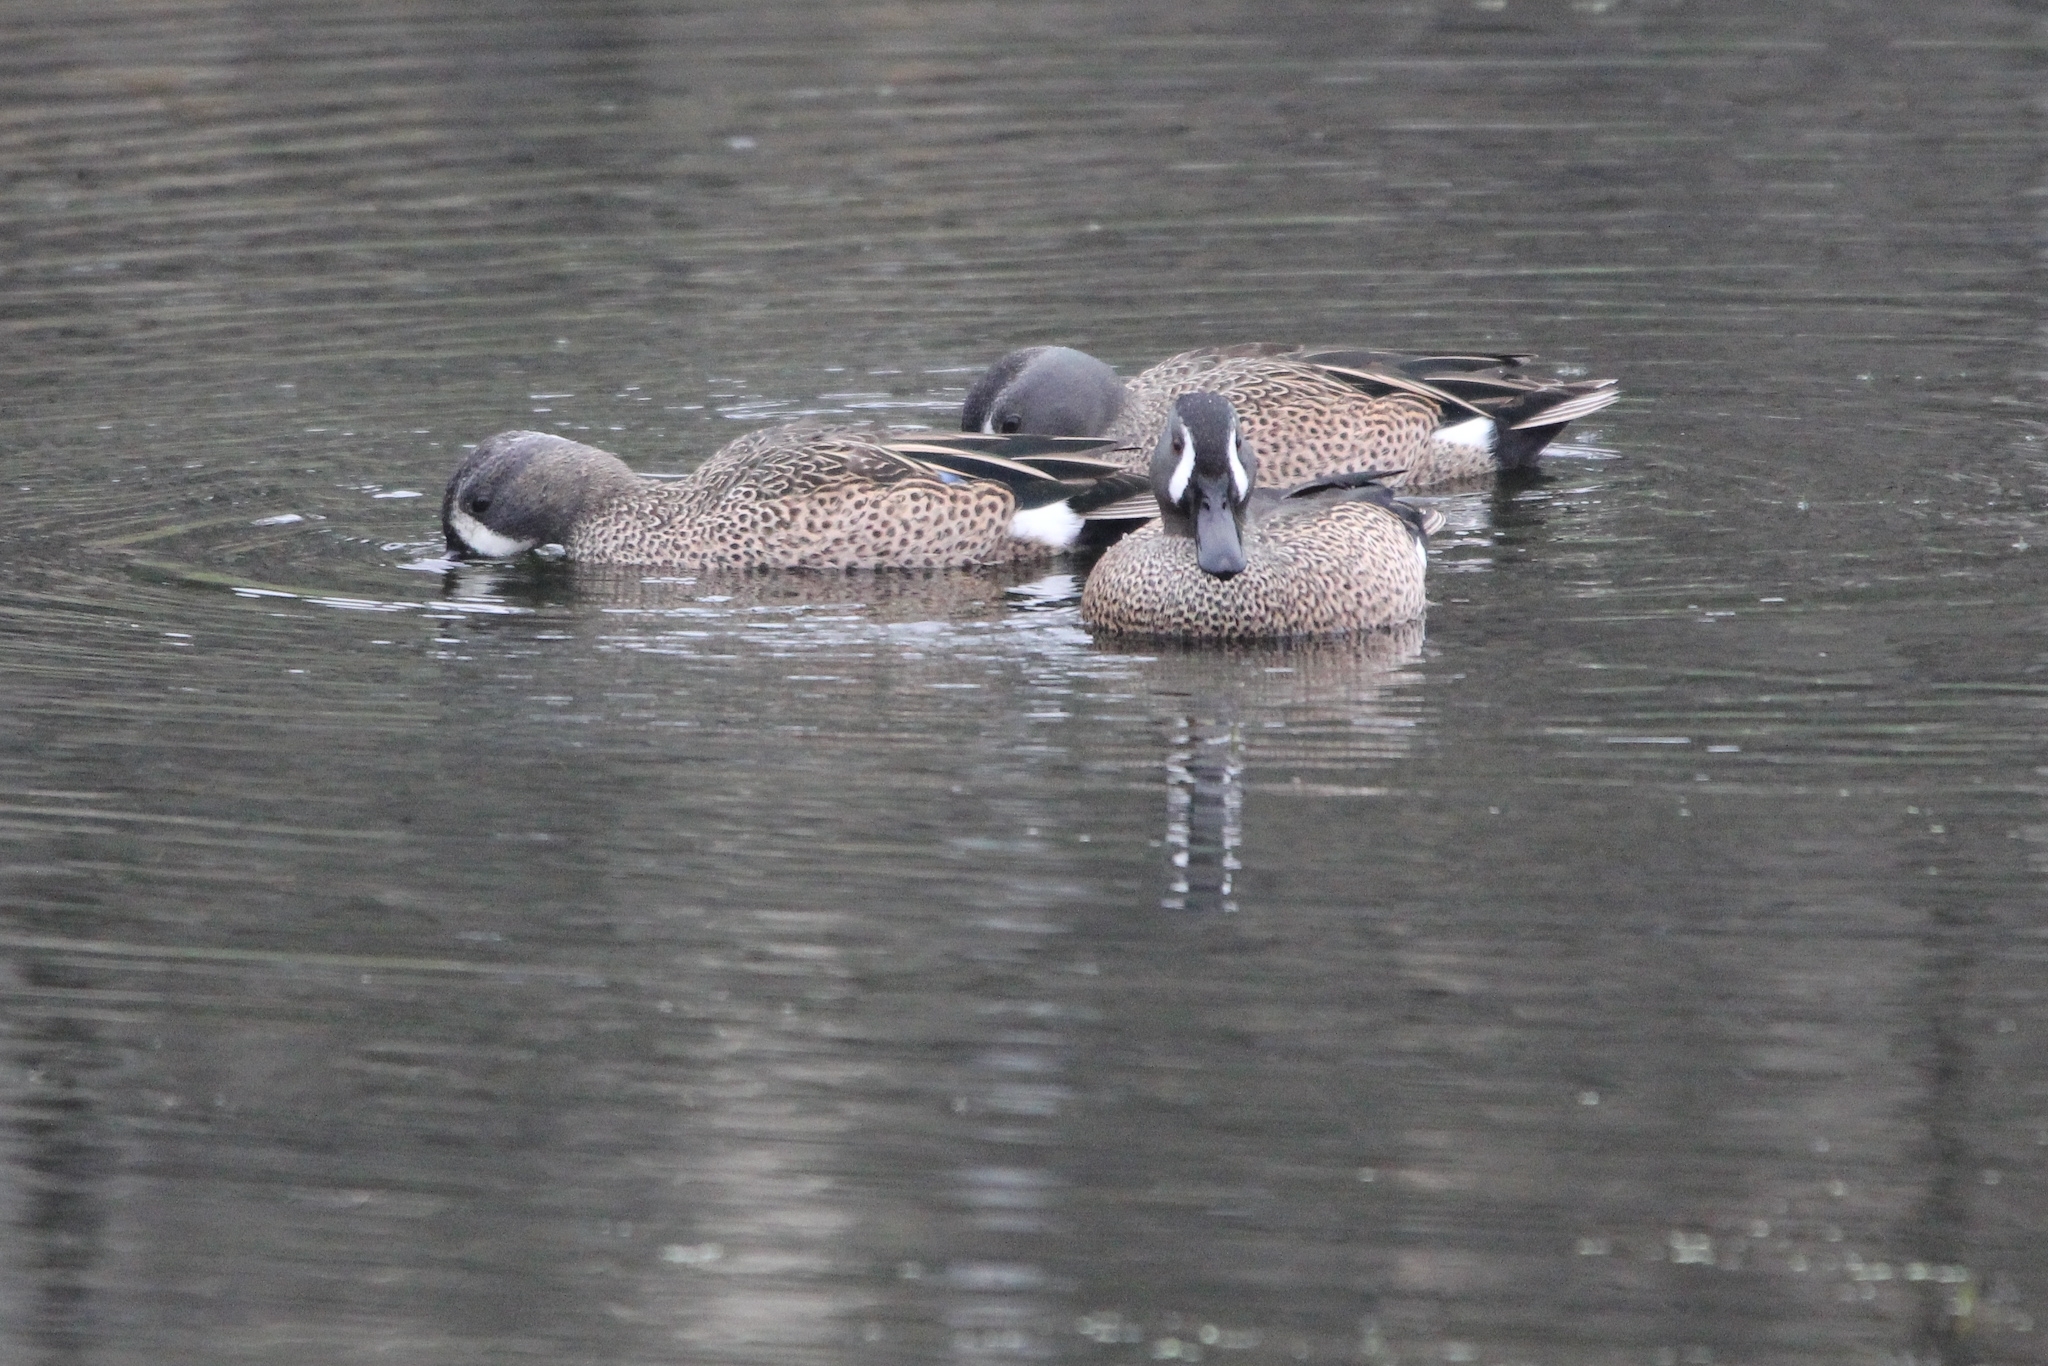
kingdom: Animalia
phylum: Chordata
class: Aves
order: Anseriformes
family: Anatidae
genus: Spatula
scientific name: Spatula discors
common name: Blue-winged teal
